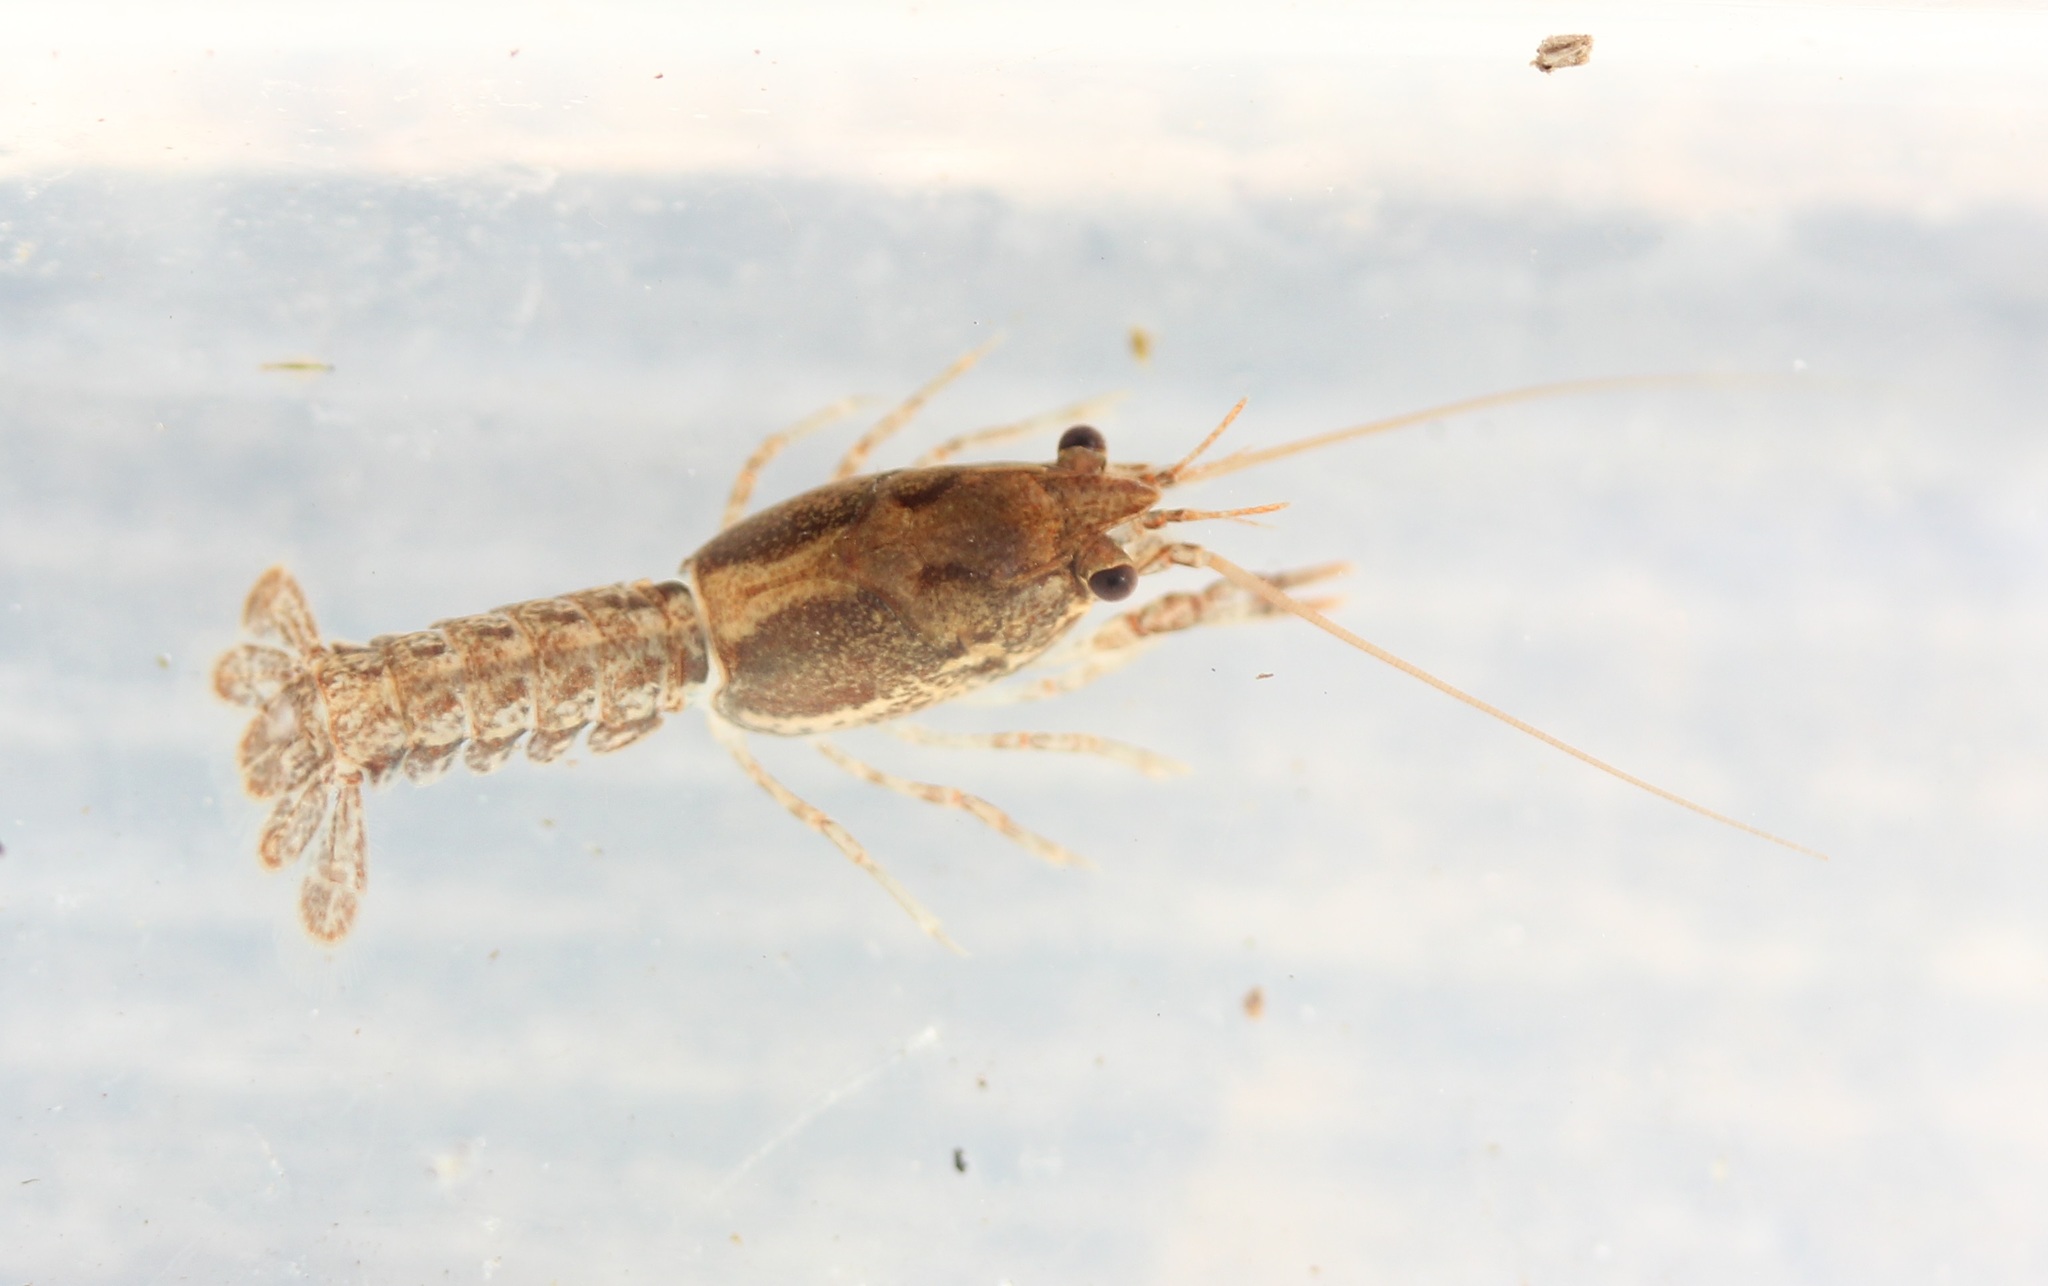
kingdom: Animalia
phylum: Arthropoda
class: Malacostraca
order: Decapoda
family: Cambaridae
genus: Procambarus
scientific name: Procambarus gracilis
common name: Prairie crayfish
